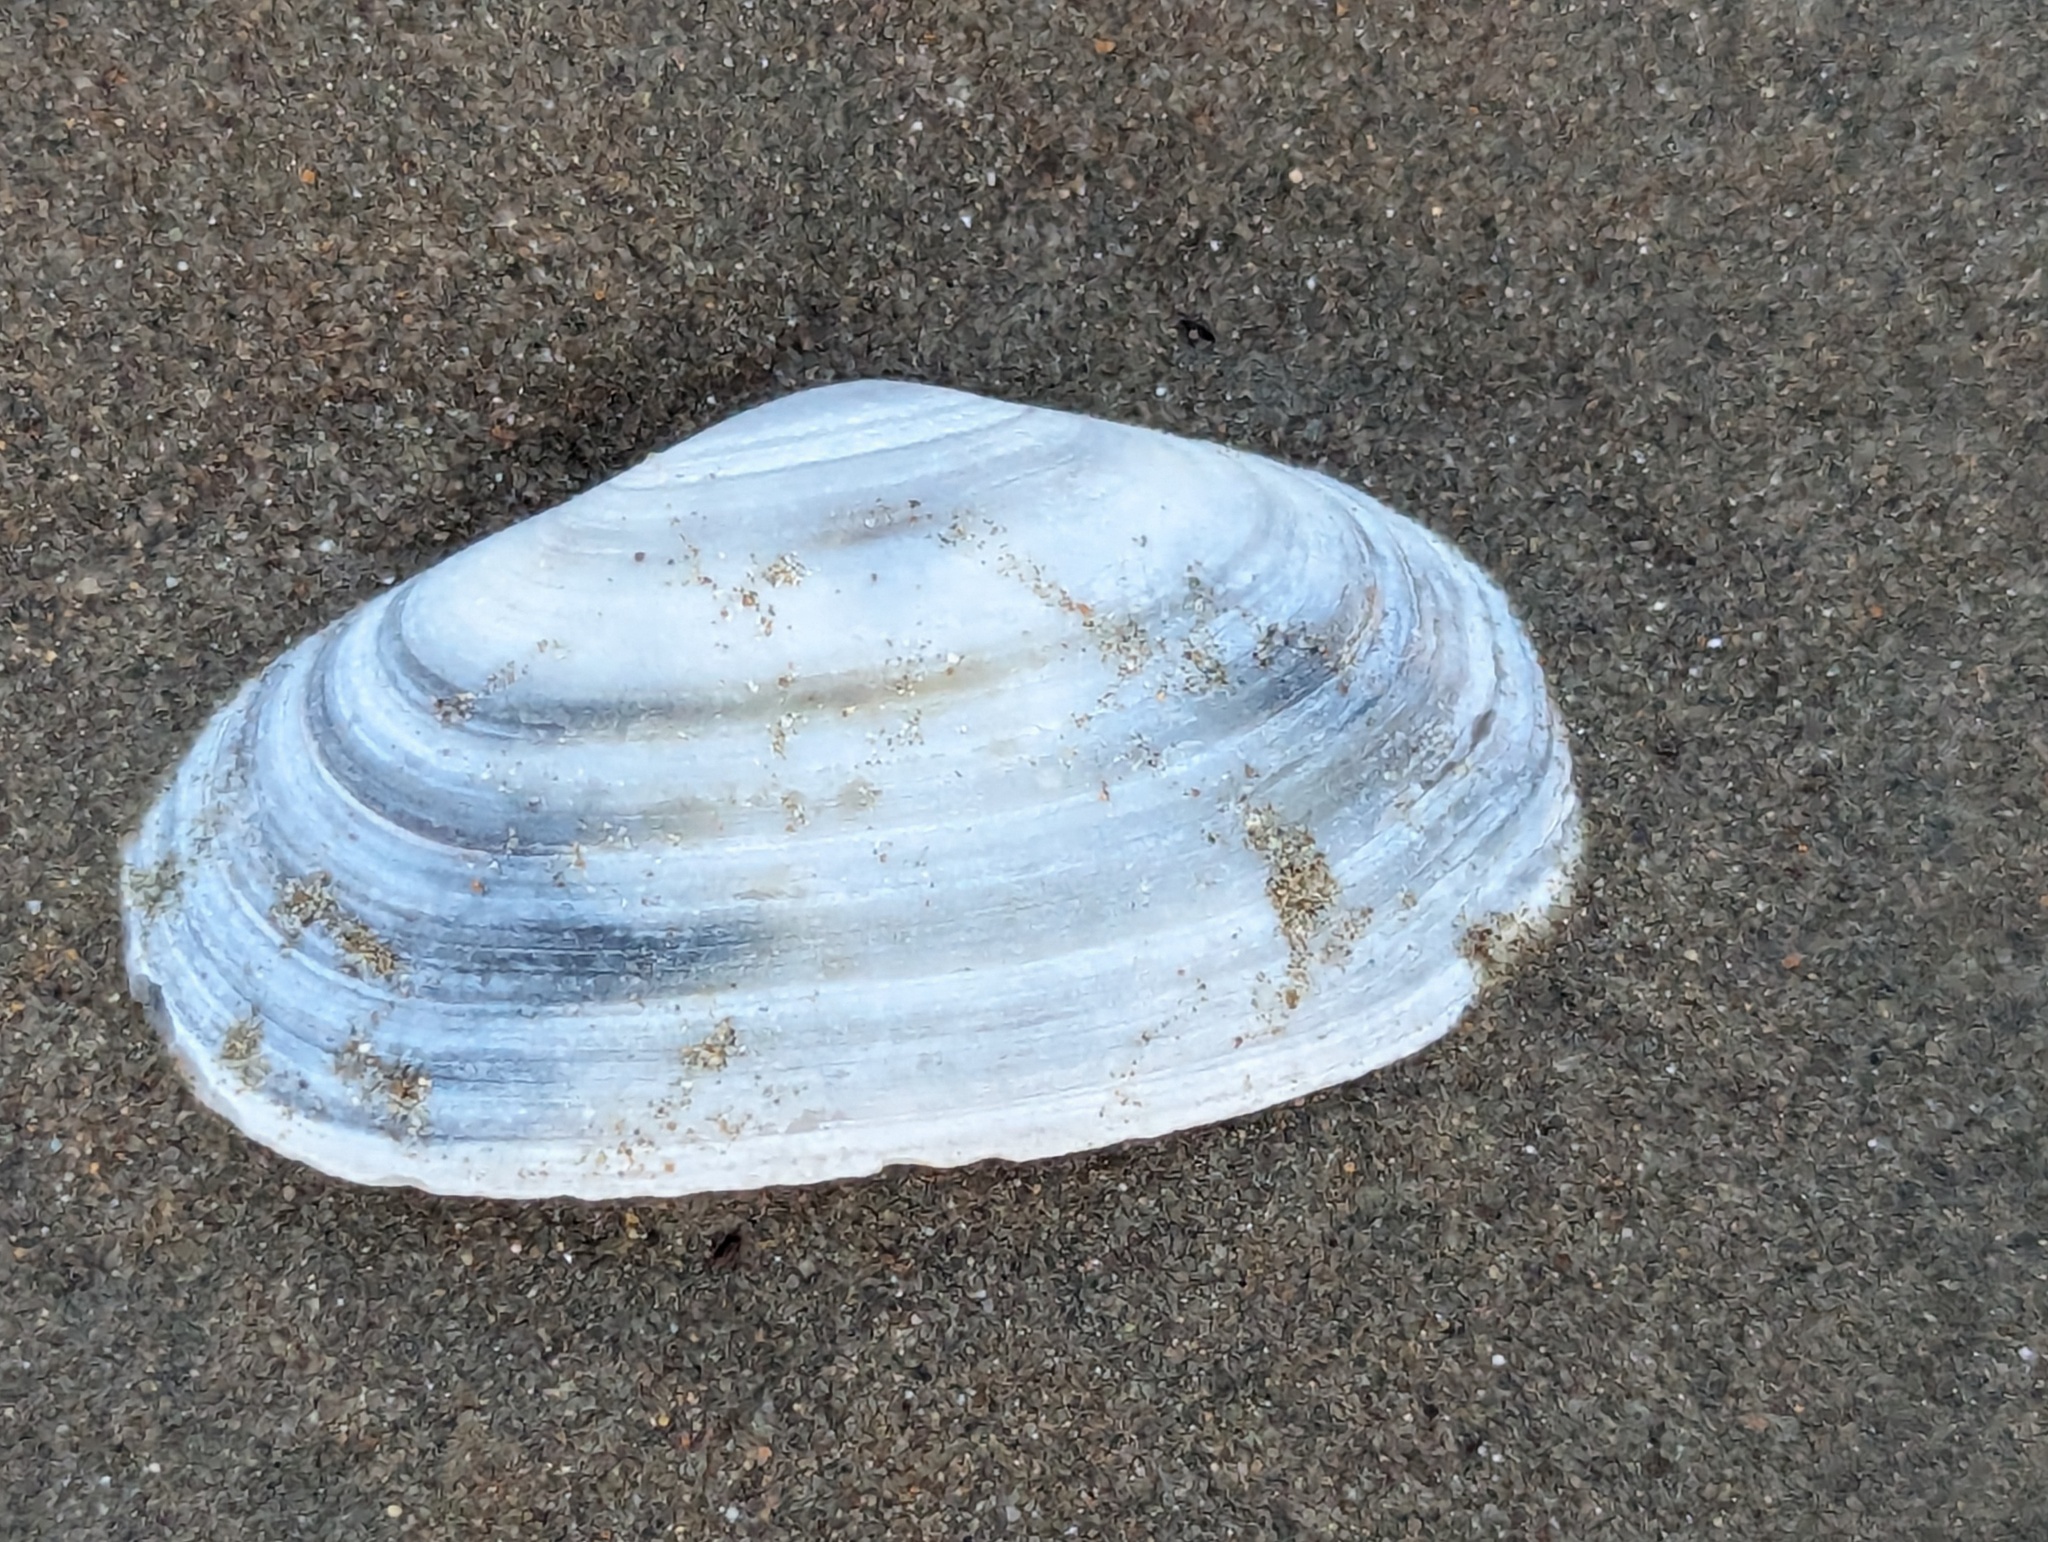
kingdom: Animalia
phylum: Mollusca
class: Bivalvia
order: Venerida
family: Mesodesmatidae
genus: Paphies
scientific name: Paphies australis
